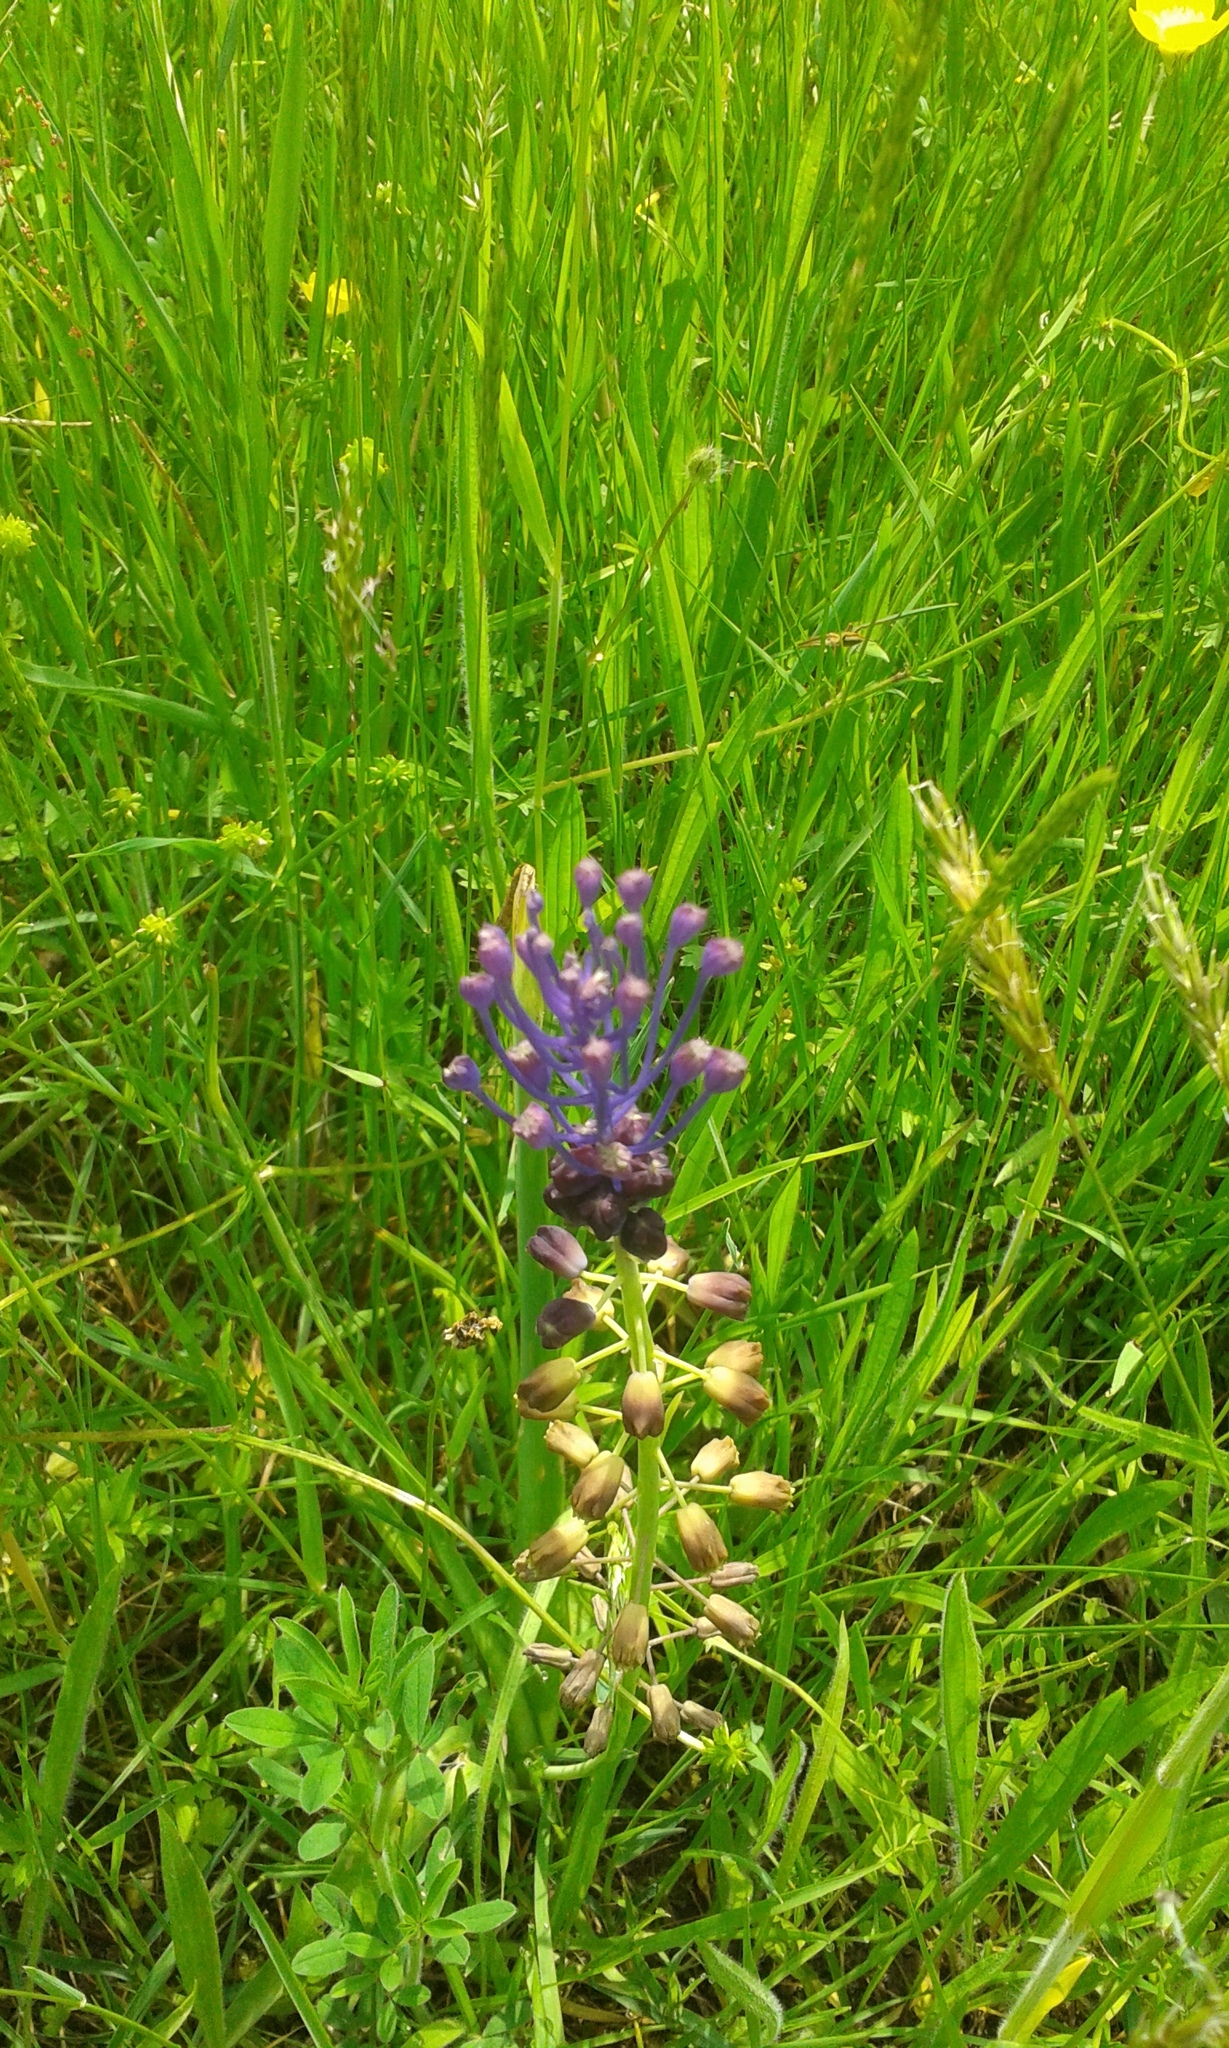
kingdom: Plantae
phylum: Tracheophyta
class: Liliopsida
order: Asparagales
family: Asparagaceae
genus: Muscari
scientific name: Muscari comosum
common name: Tassel hyacinth
